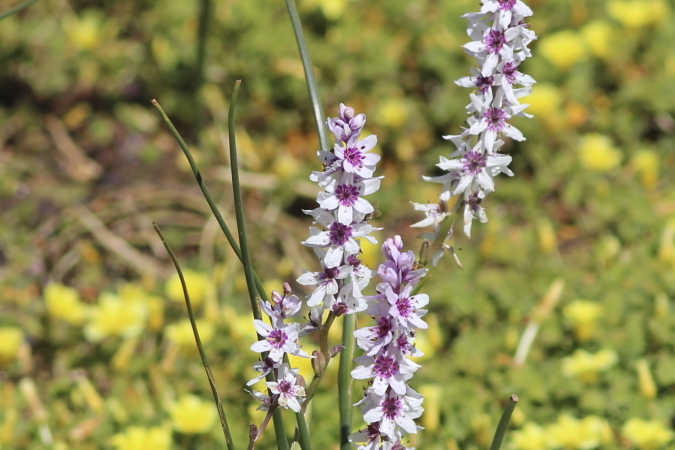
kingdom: Plantae
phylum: Tracheophyta
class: Liliopsida
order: Liliales
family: Colchicaceae
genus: Wurmbea
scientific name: Wurmbea stricta
